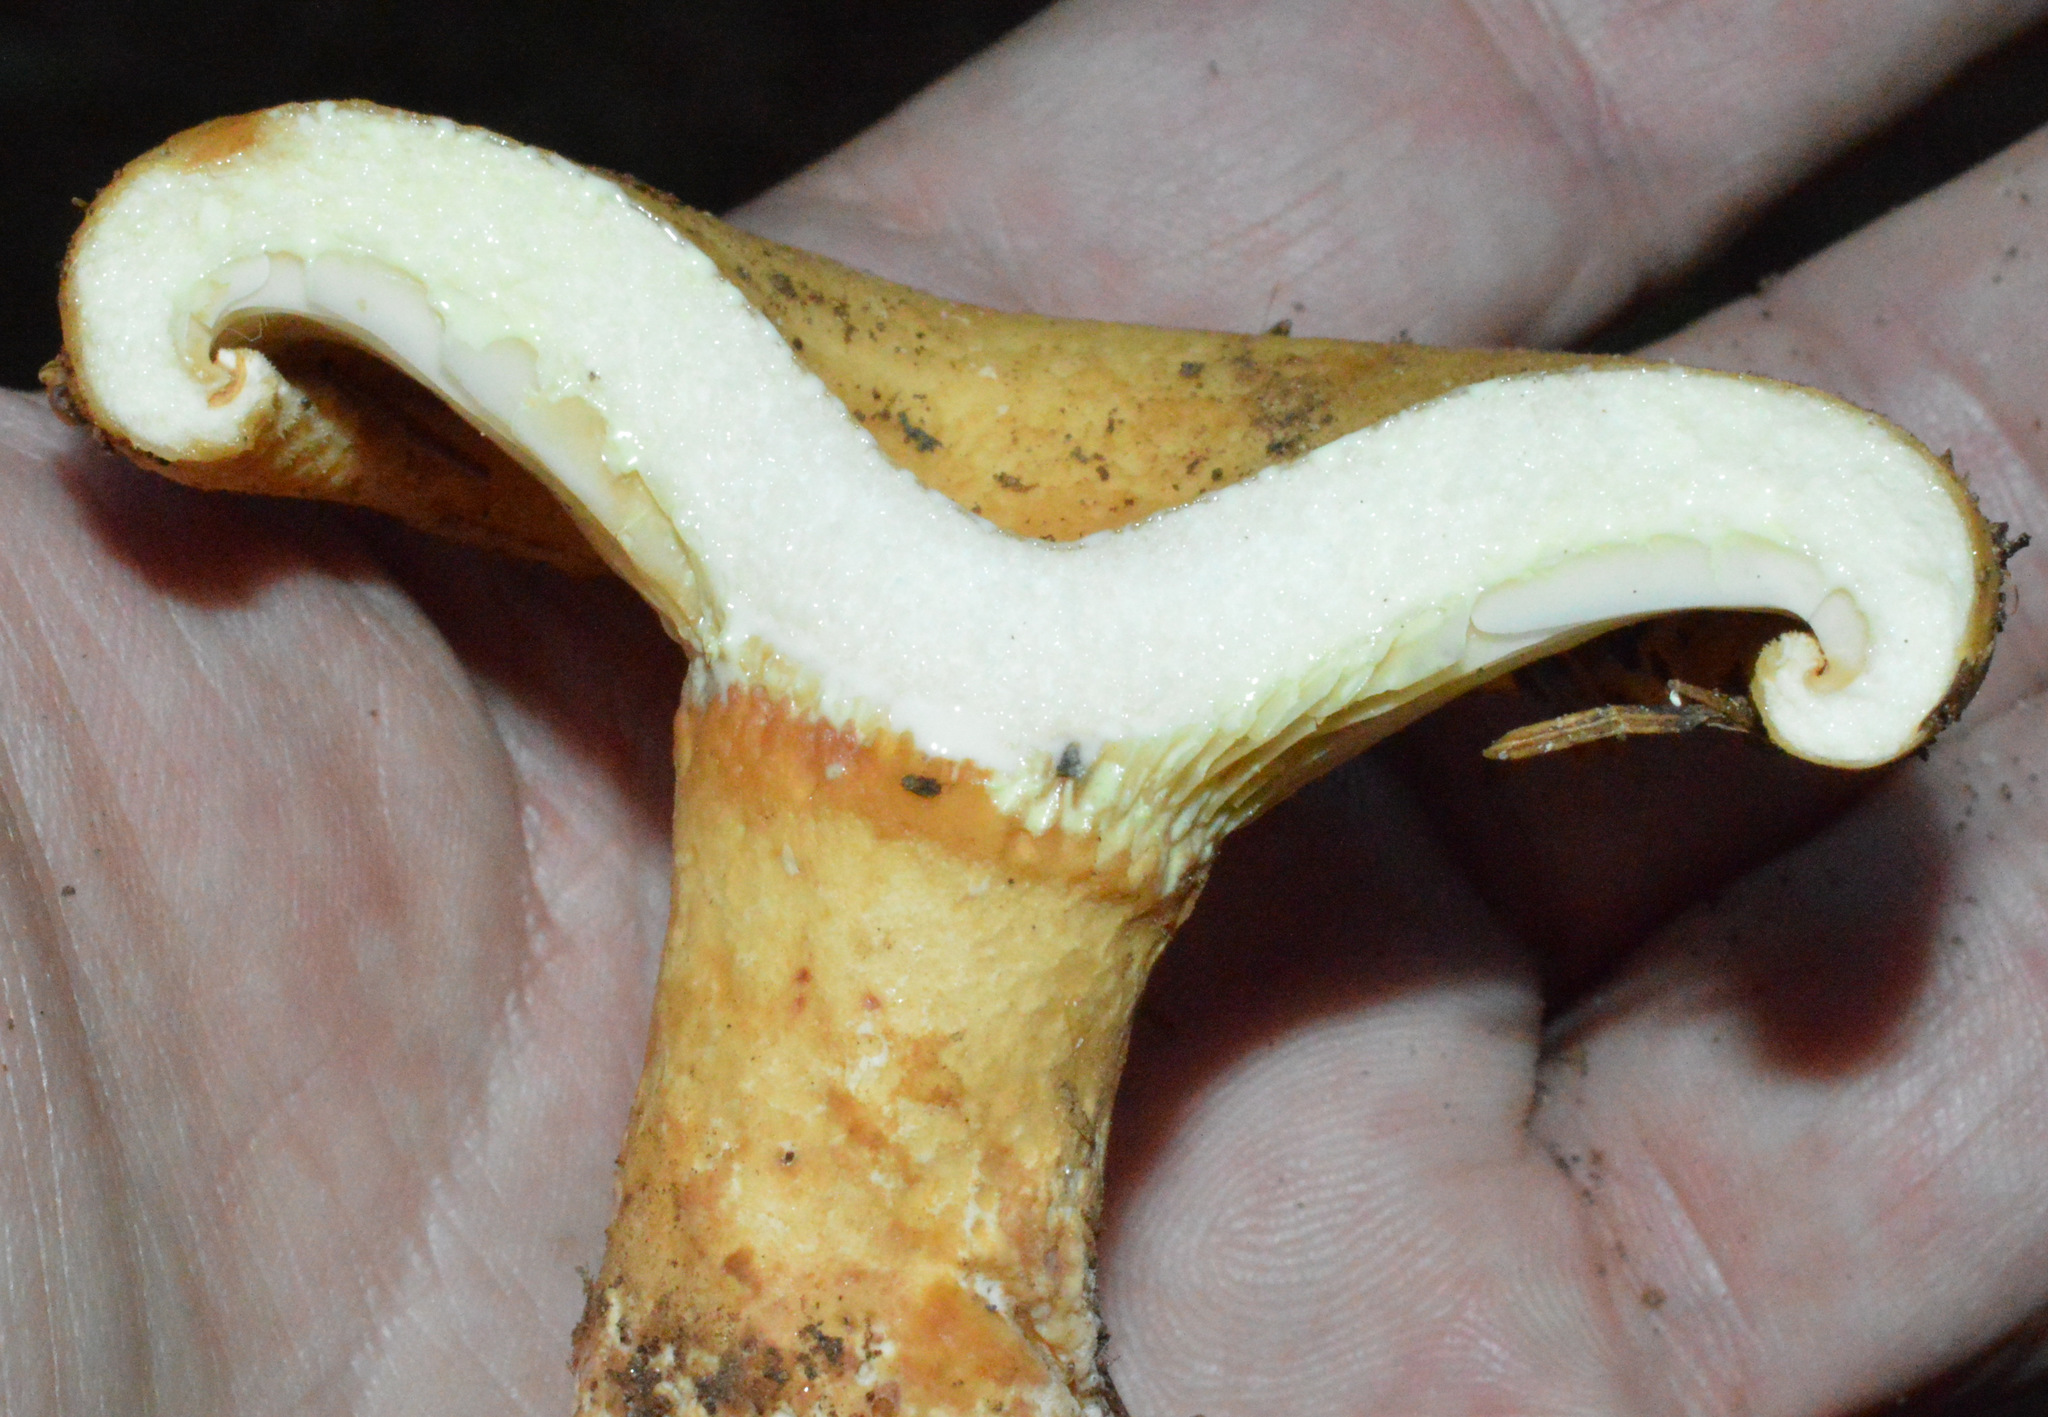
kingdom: Fungi
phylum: Basidiomycota
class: Agaricomycetes
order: Russulales
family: Russulaceae
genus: Lactarius
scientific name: Lactarius torminosus
